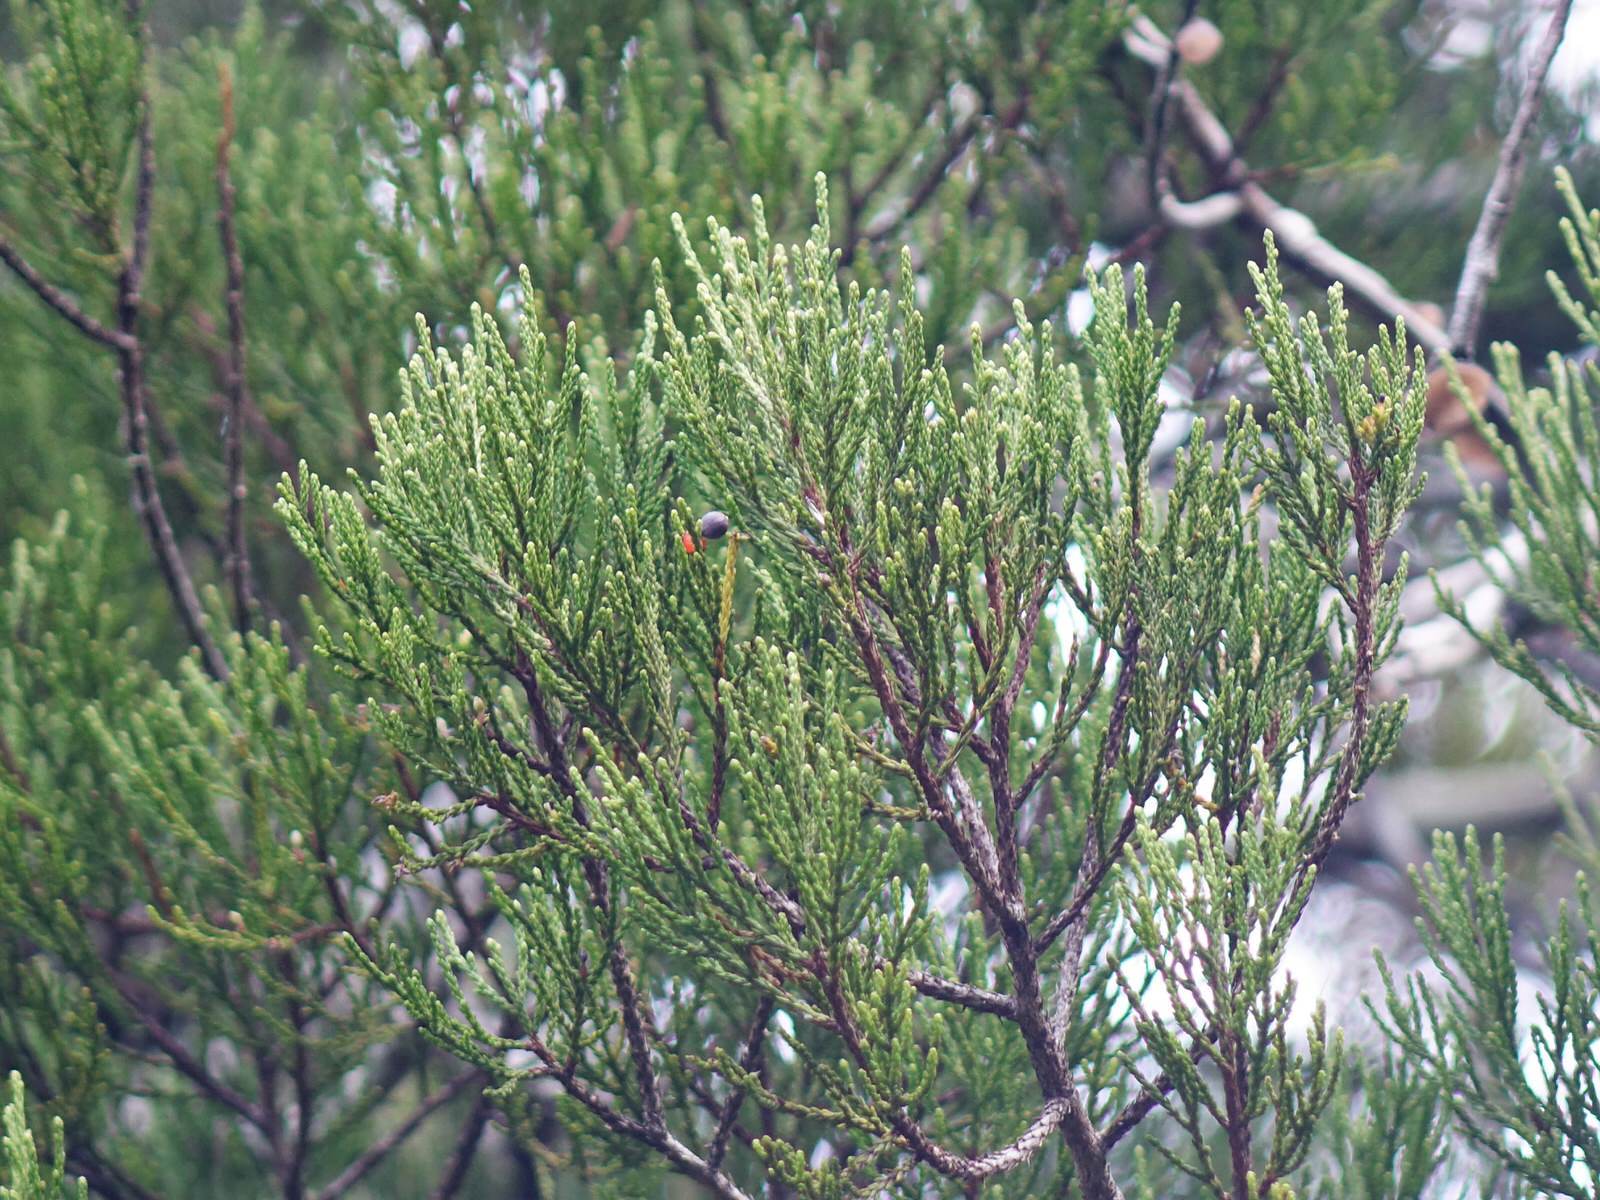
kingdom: Plantae
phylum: Tracheophyta
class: Pinopsida
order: Pinales
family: Podocarpaceae
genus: Dacrycarpus
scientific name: Dacrycarpus dacrydioides
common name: White pine
